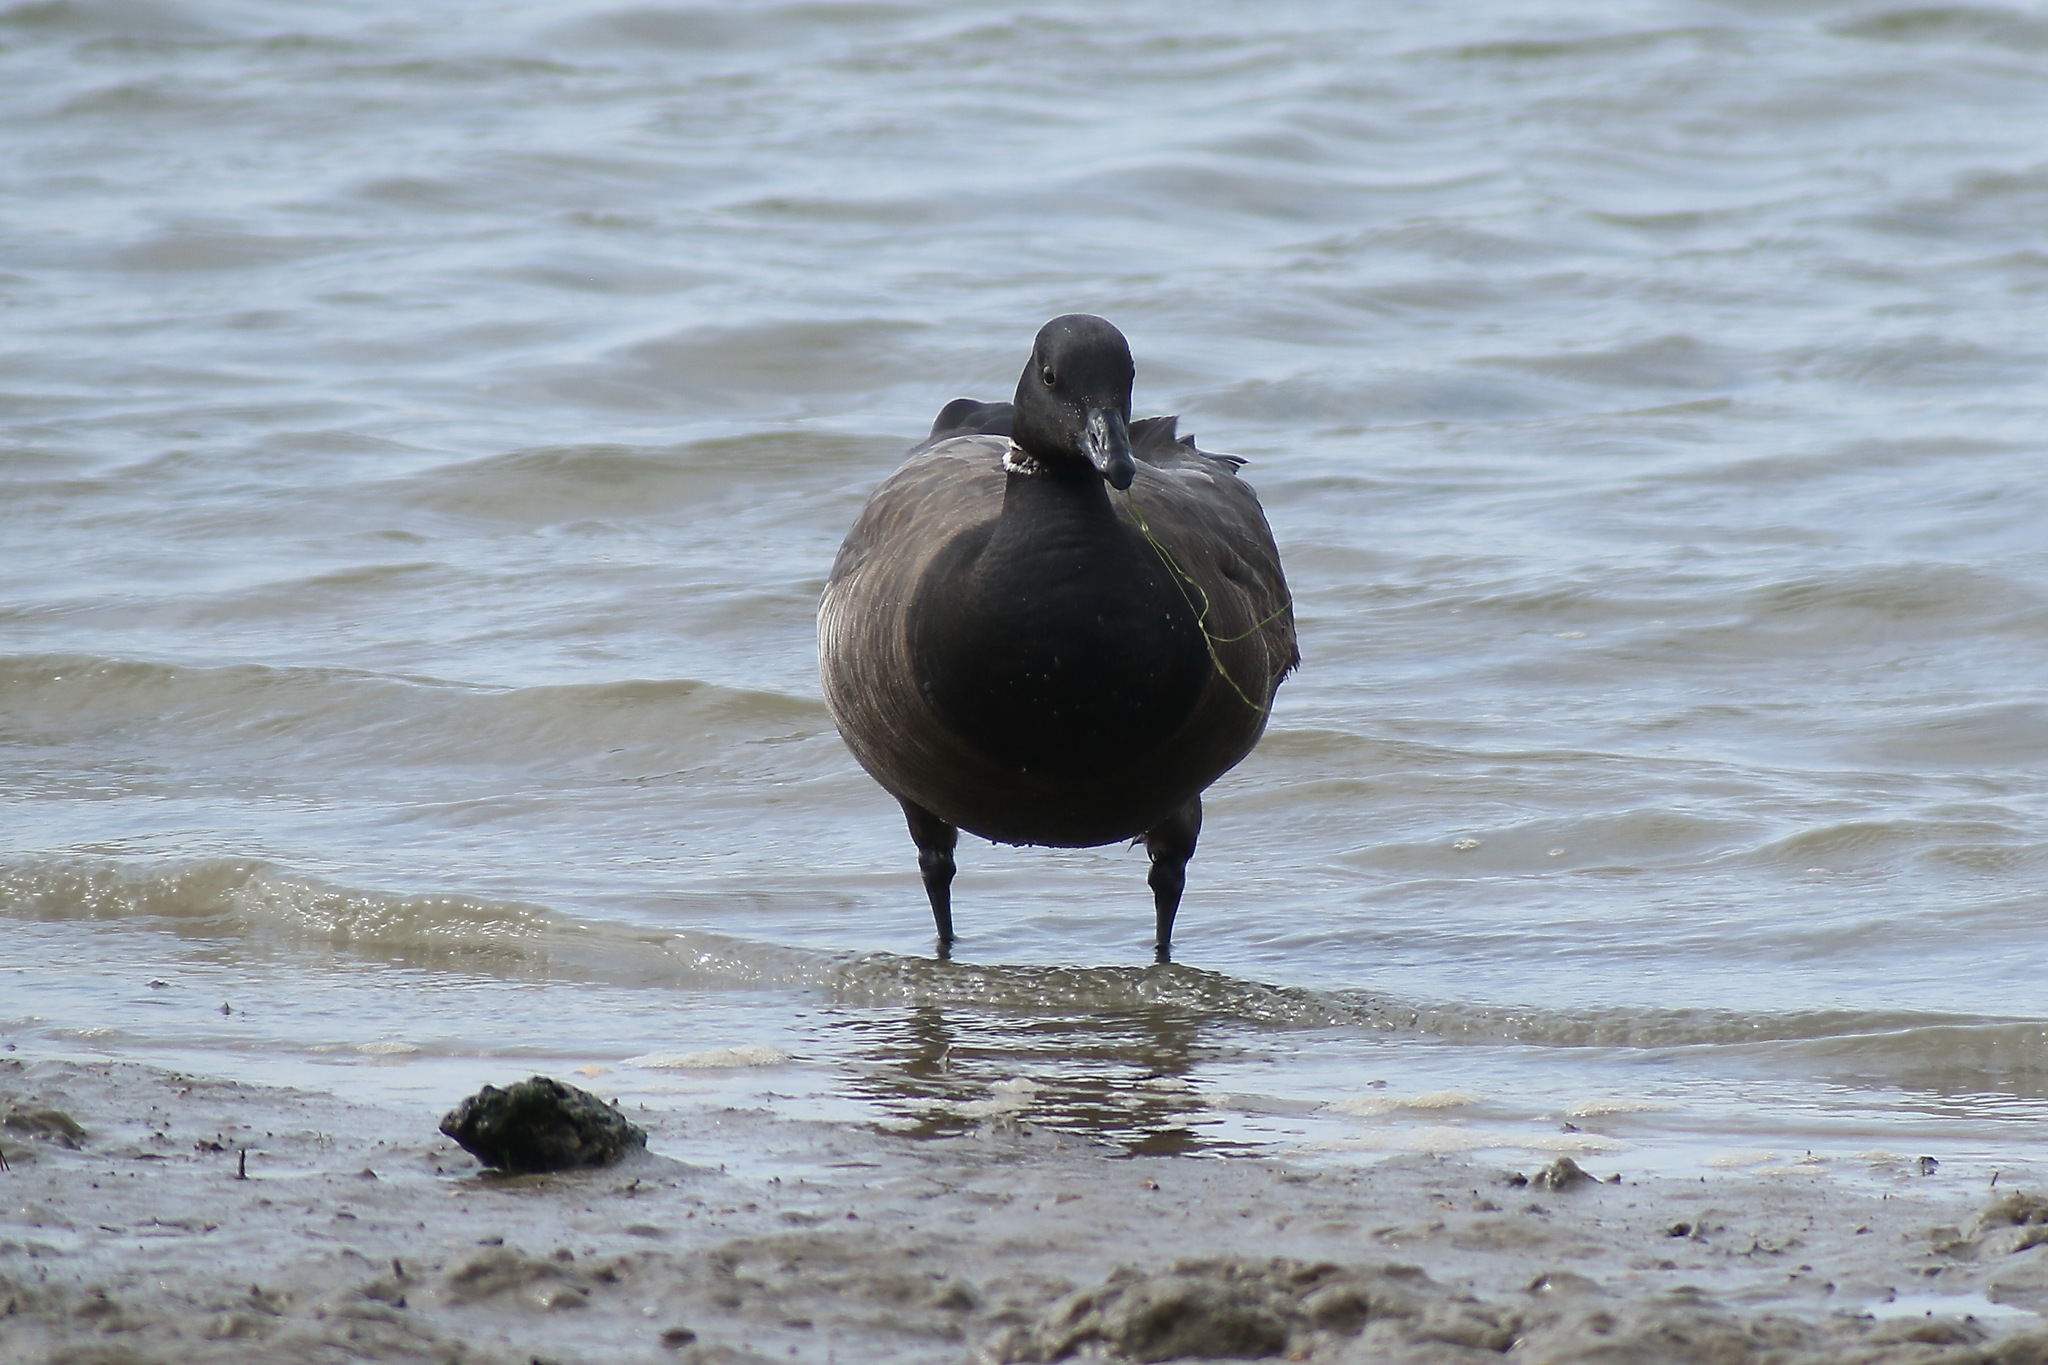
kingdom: Animalia
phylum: Chordata
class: Aves
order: Anseriformes
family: Anatidae
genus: Branta
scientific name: Branta bernicla
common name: Brant goose
